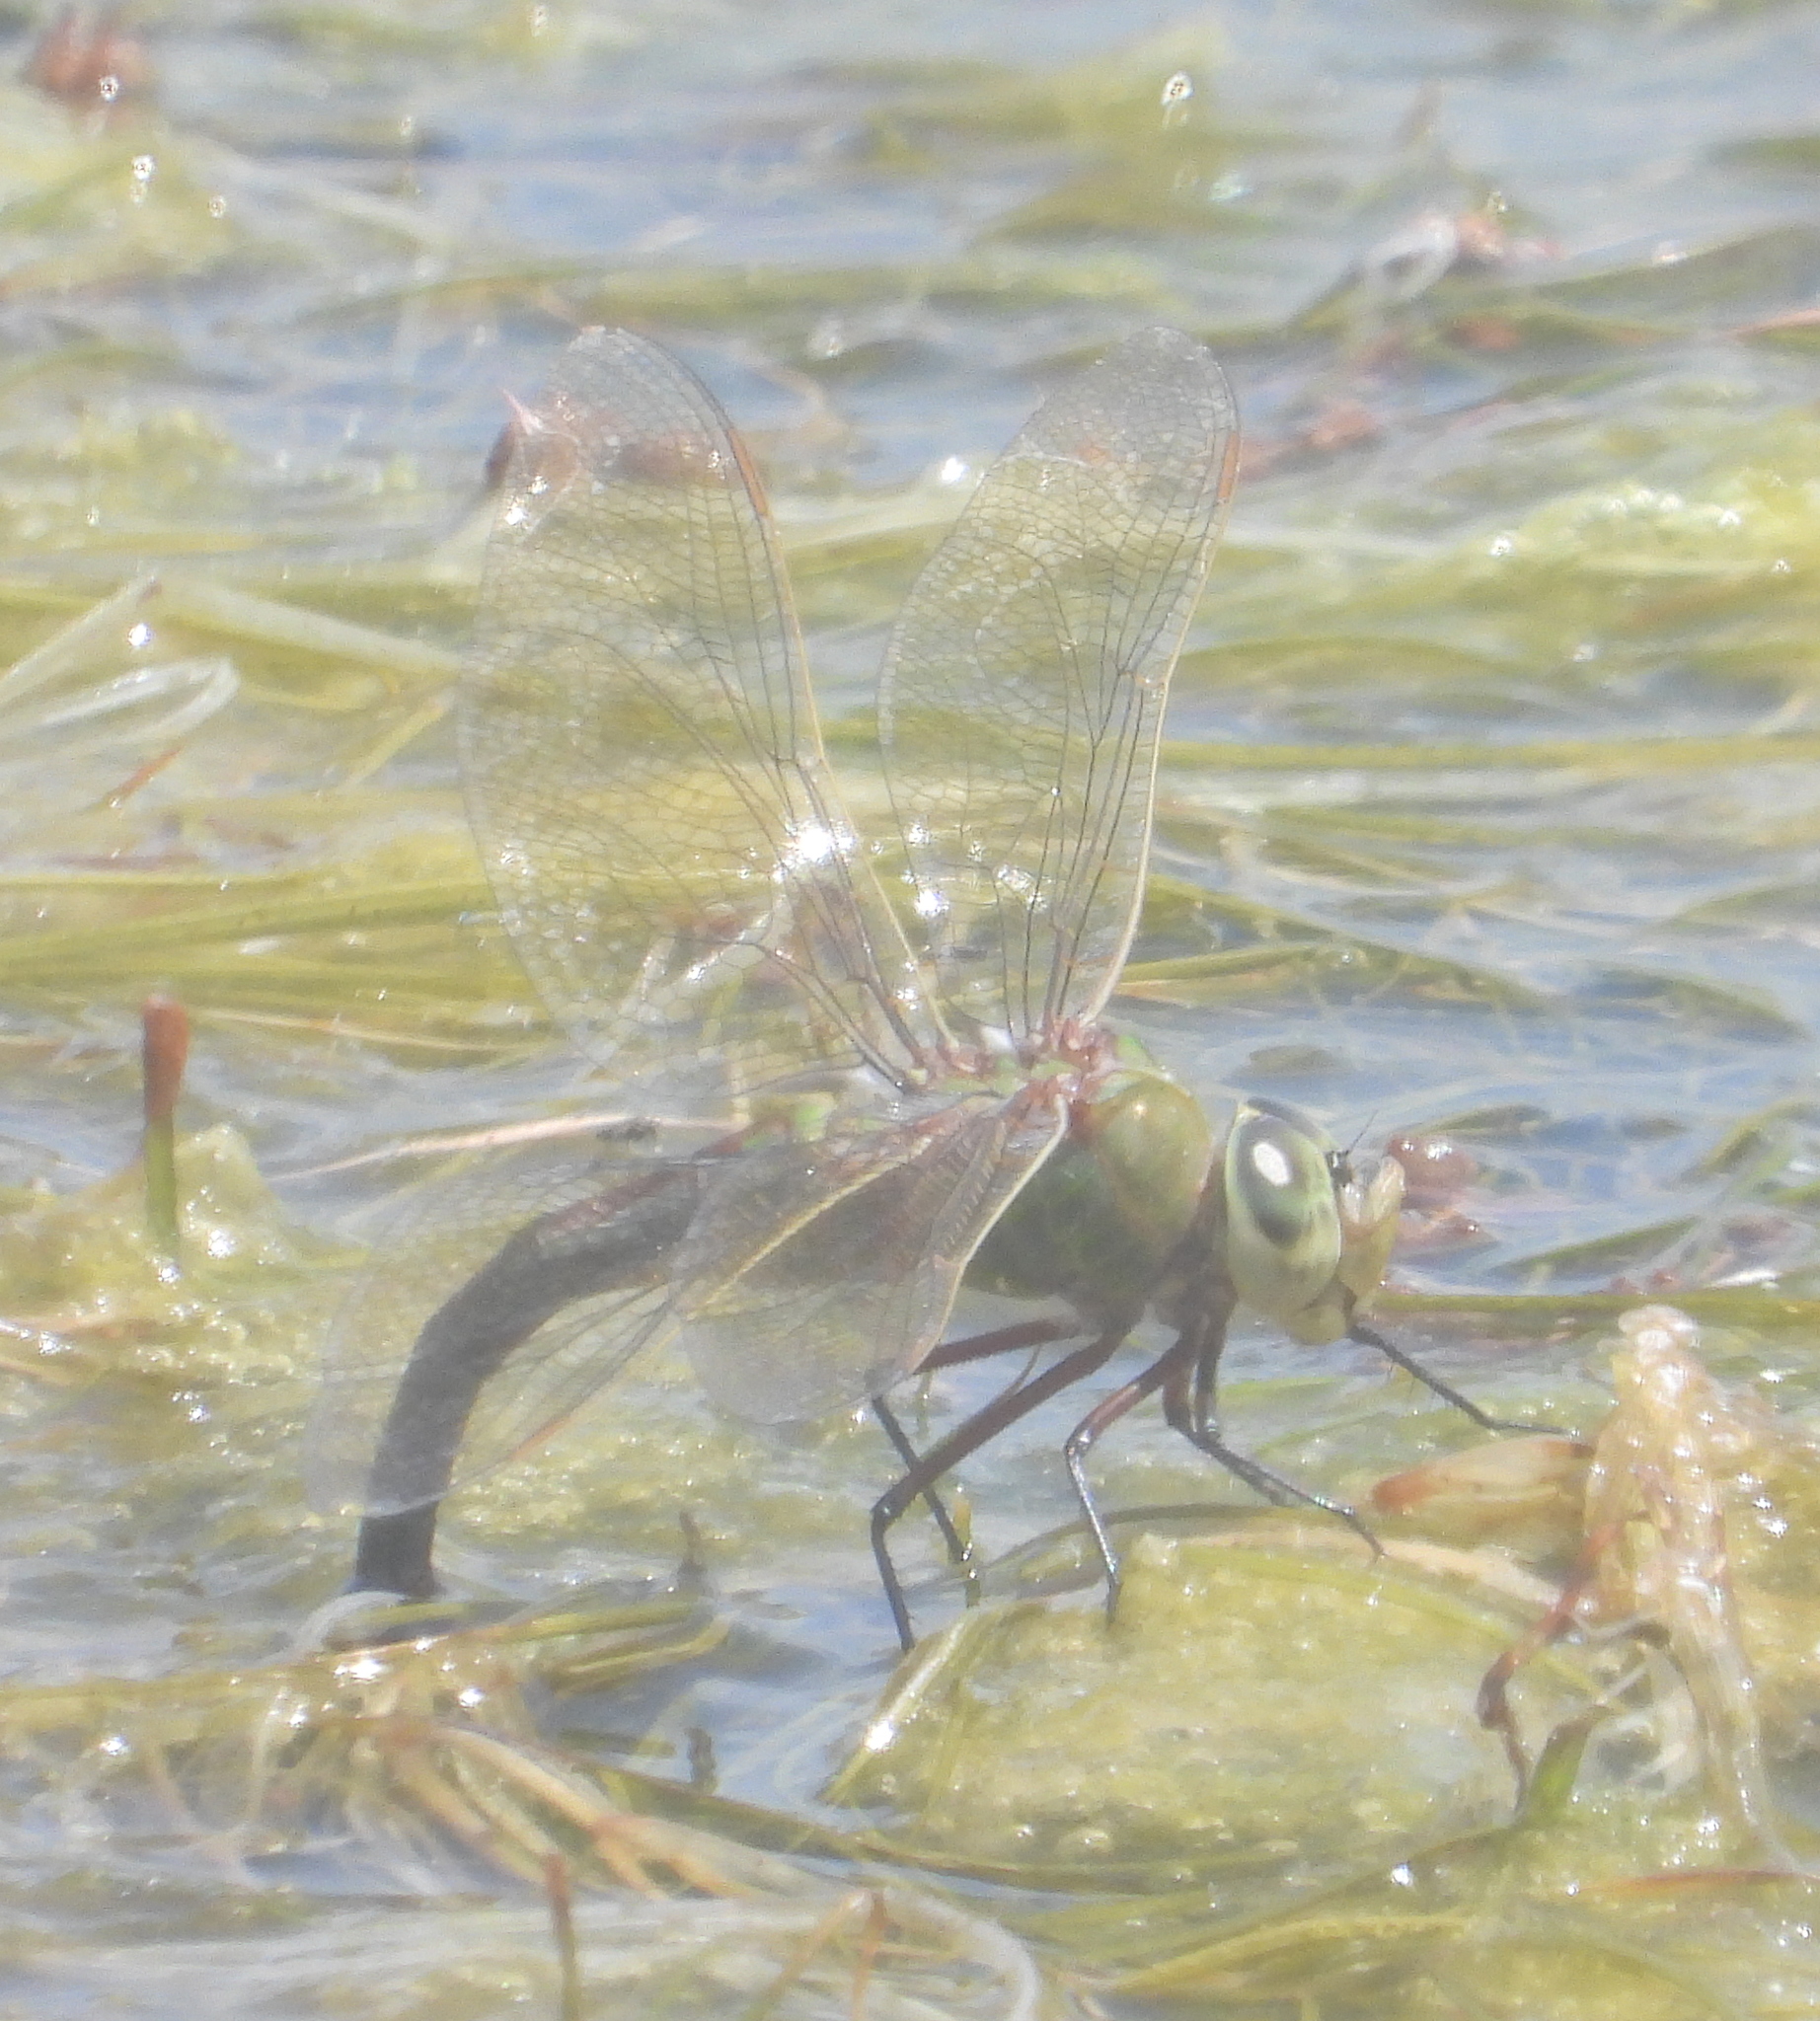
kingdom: Animalia
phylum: Arthropoda
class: Insecta
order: Odonata
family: Aeshnidae
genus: Anax
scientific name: Anax imperator
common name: Emperor dragonfly
